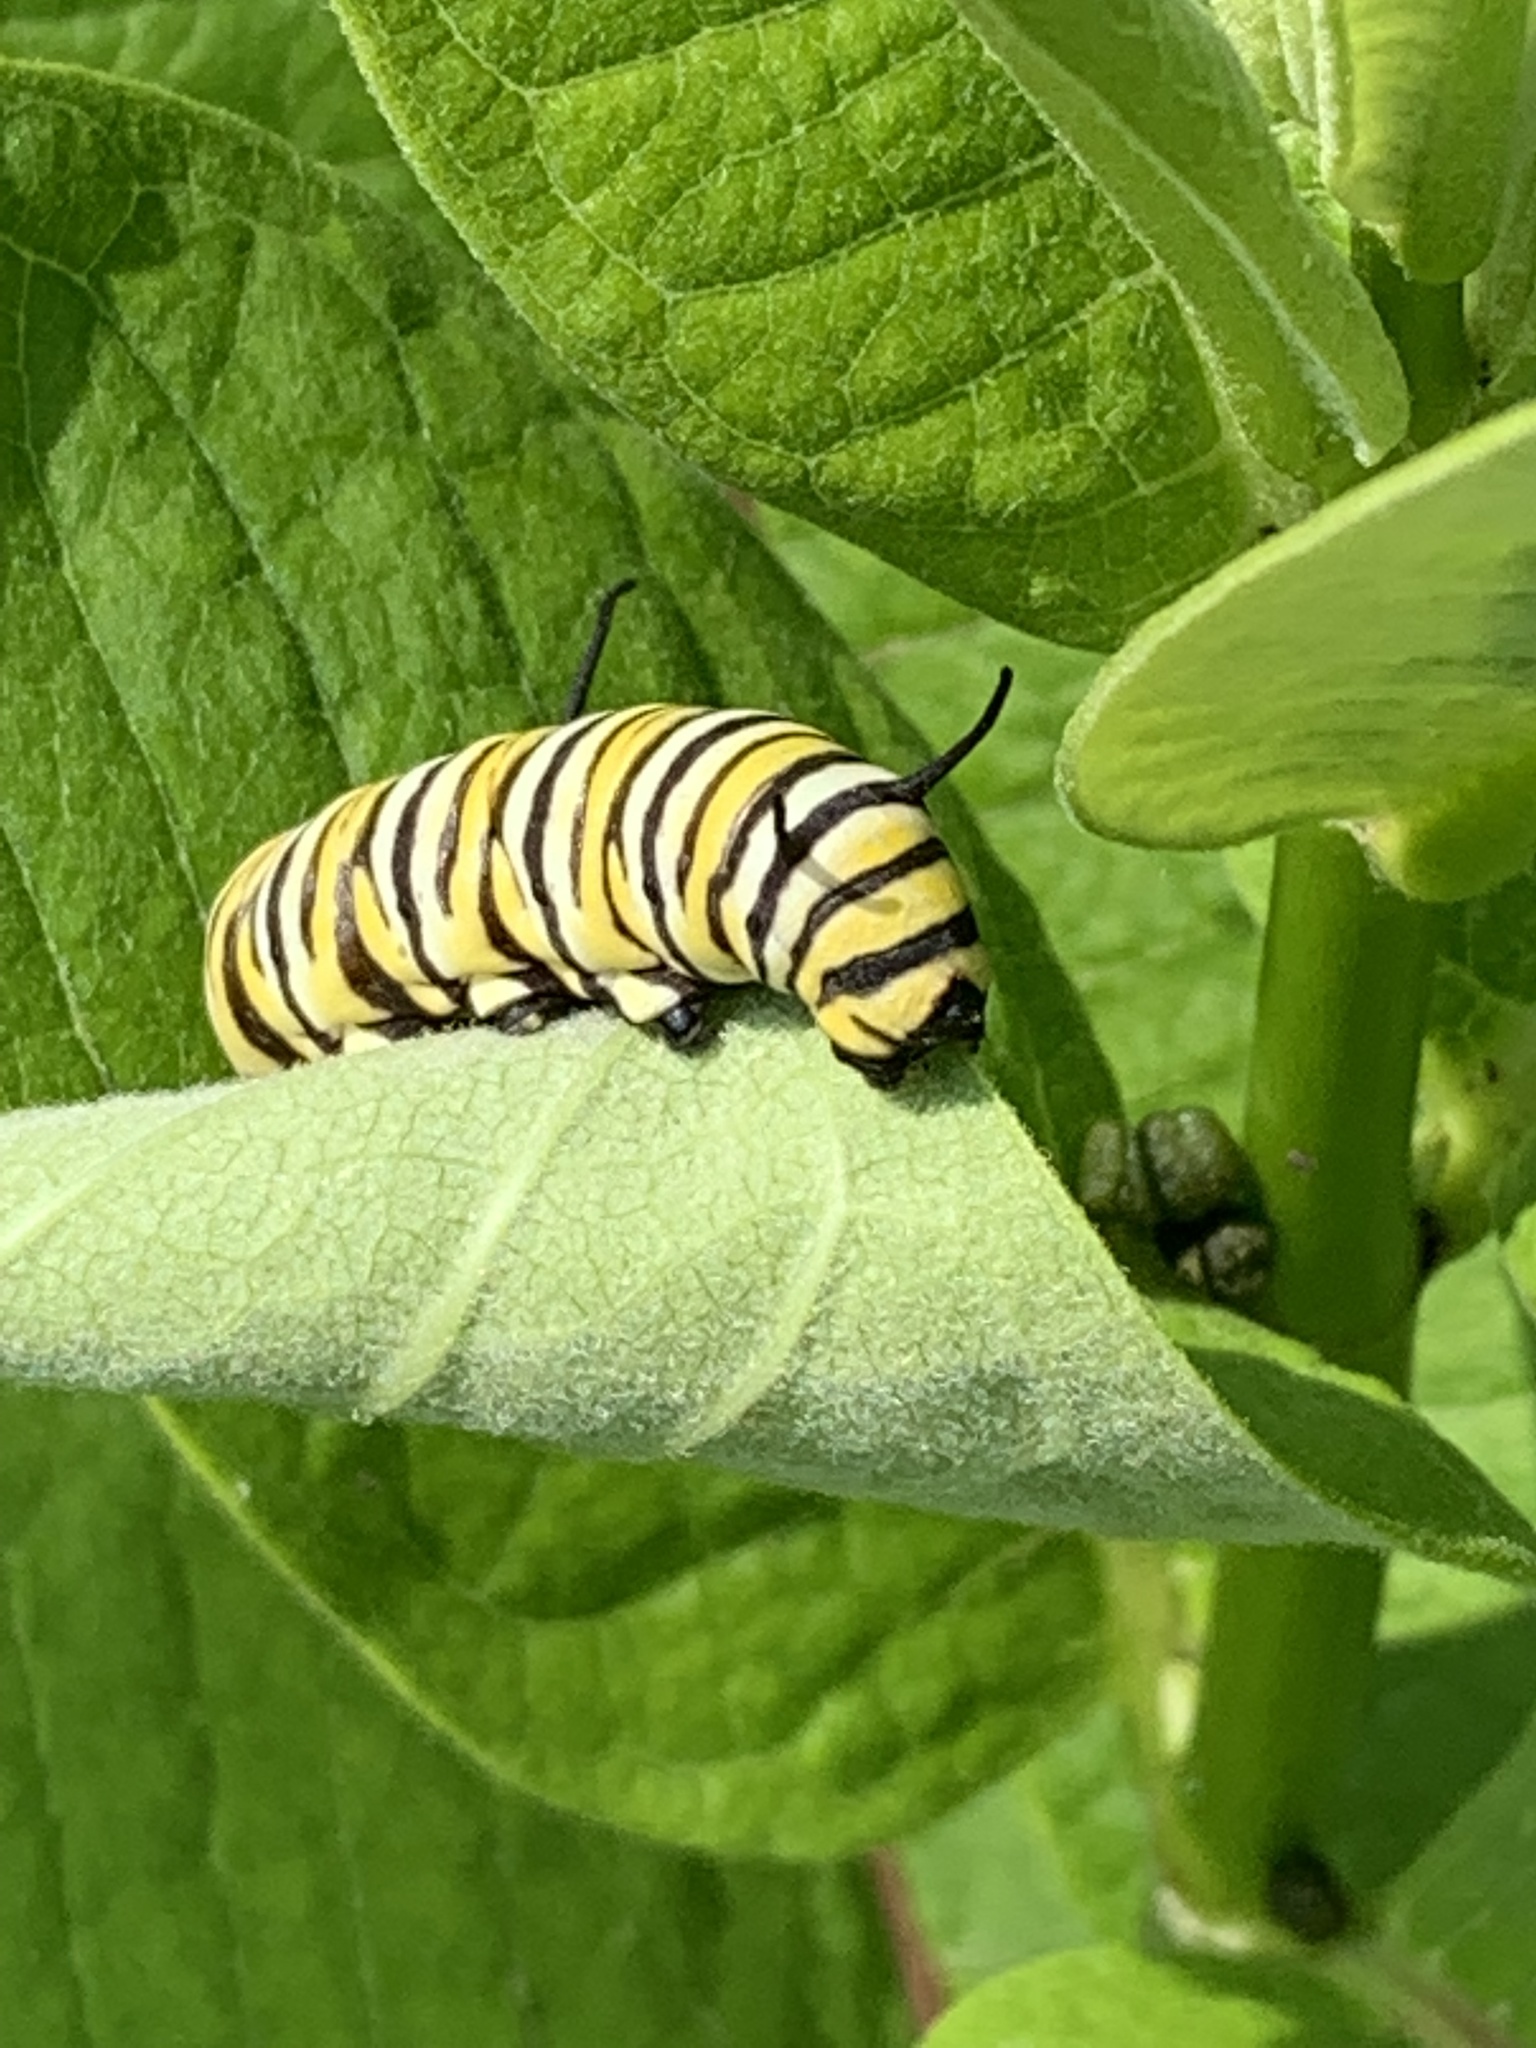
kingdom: Animalia
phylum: Arthropoda
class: Insecta
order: Lepidoptera
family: Nymphalidae
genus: Danaus
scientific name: Danaus plexippus
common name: Monarch
